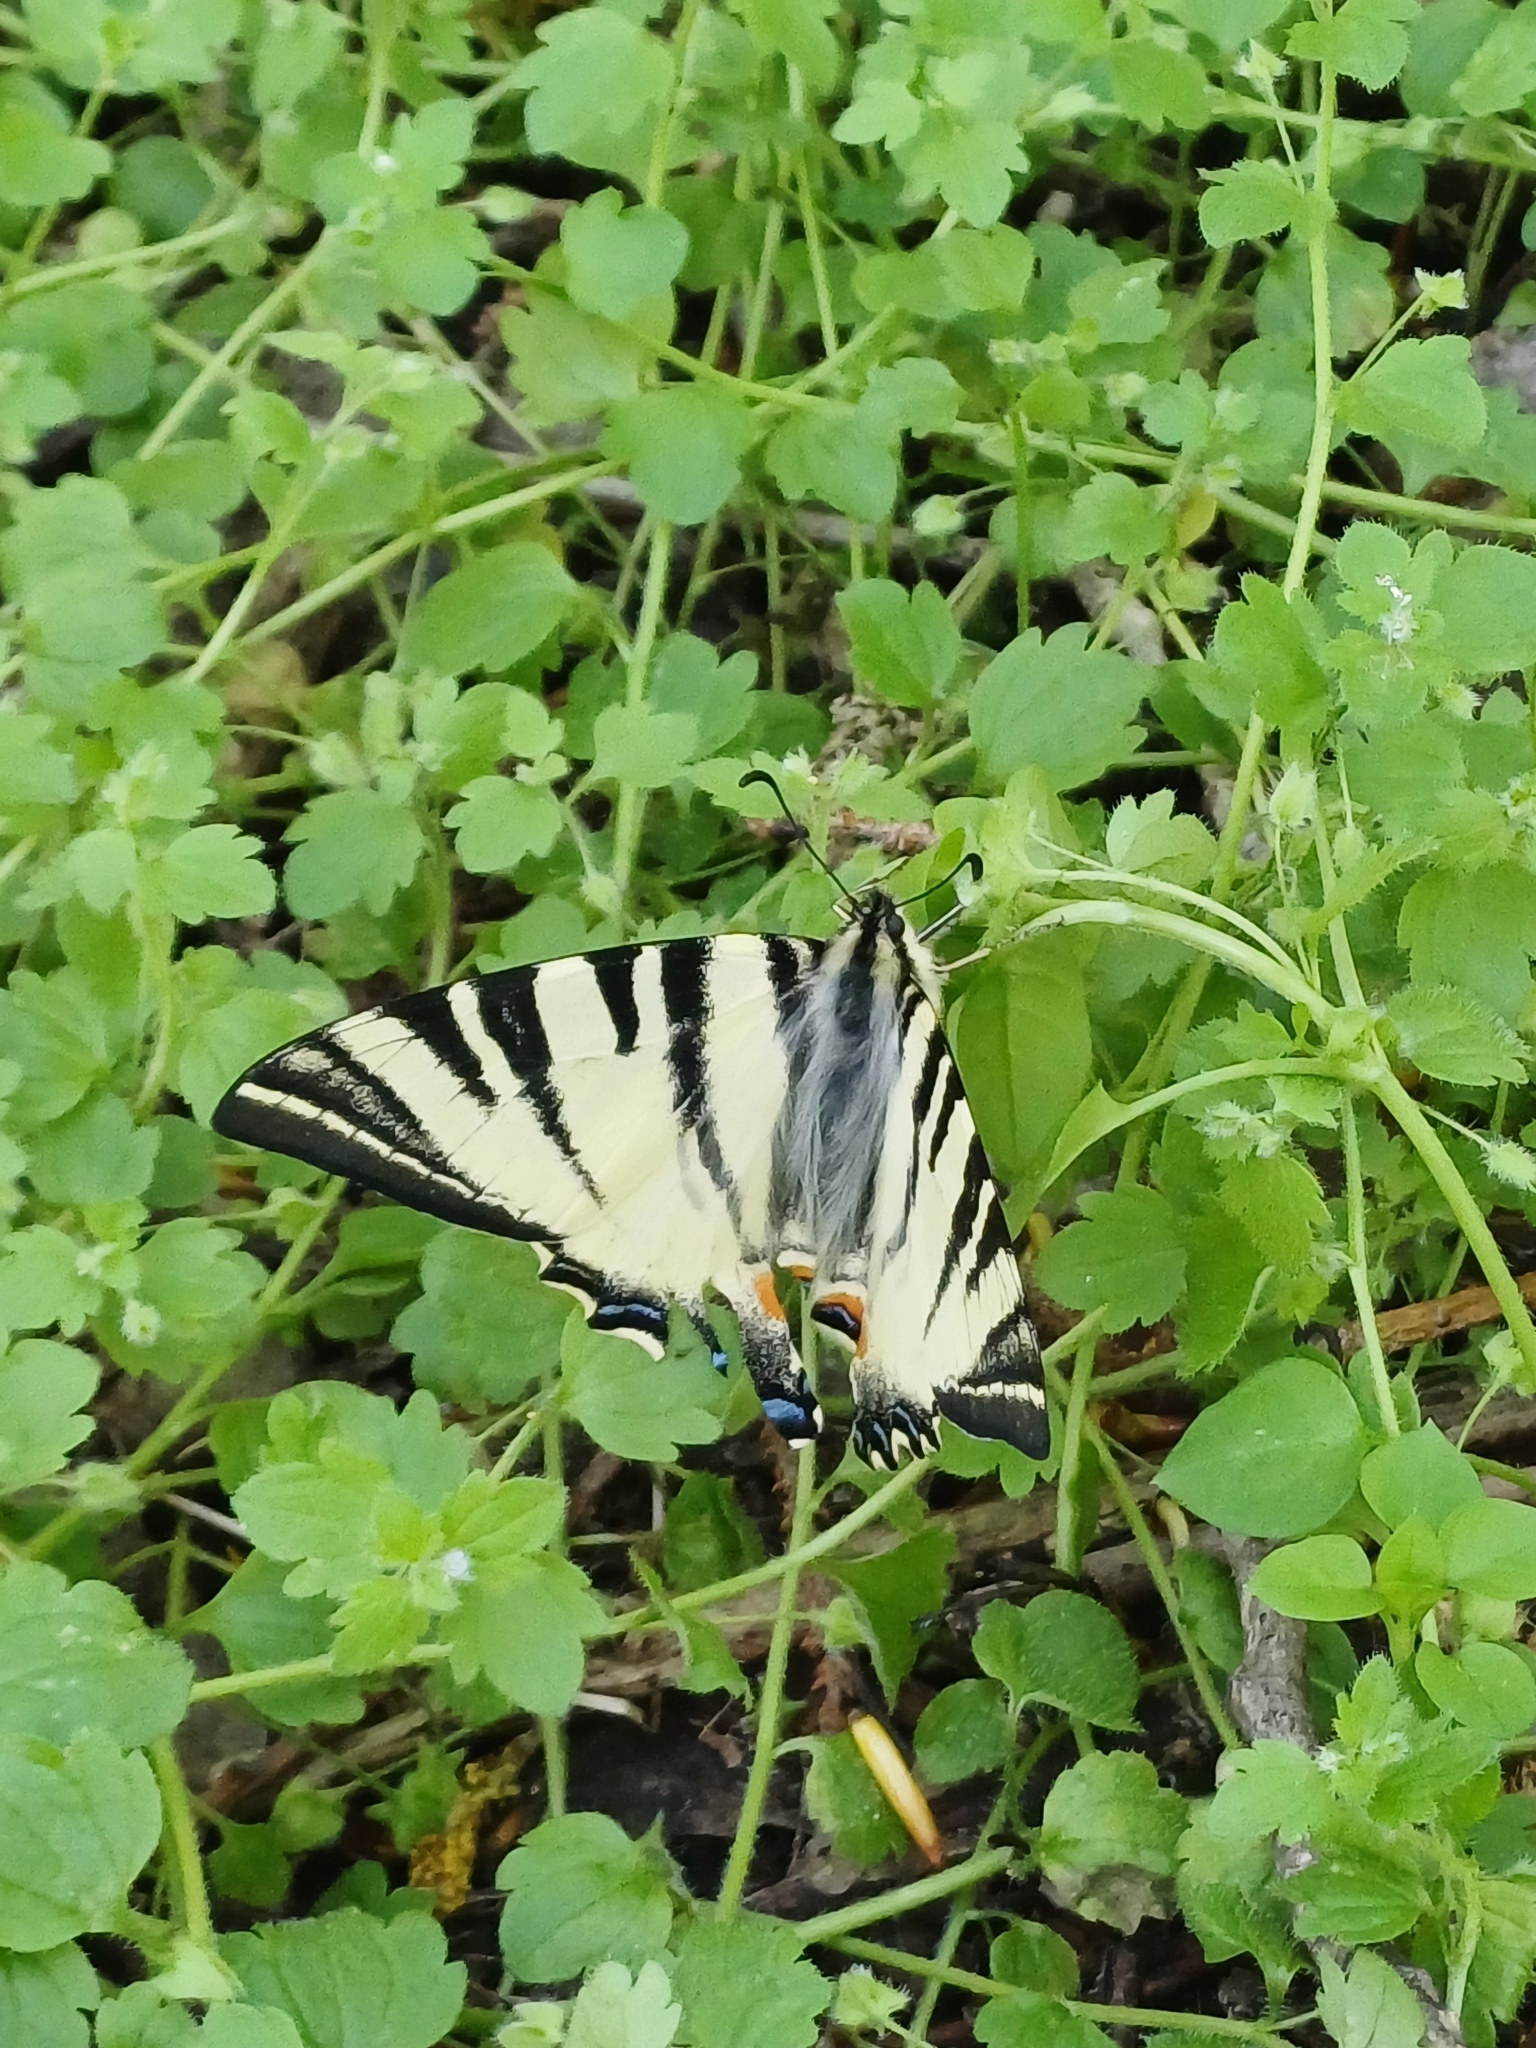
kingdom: Animalia
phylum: Arthropoda
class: Insecta
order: Lepidoptera
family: Papilionidae
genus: Iphiclides
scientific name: Iphiclides podalirius
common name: Scarce swallowtail
